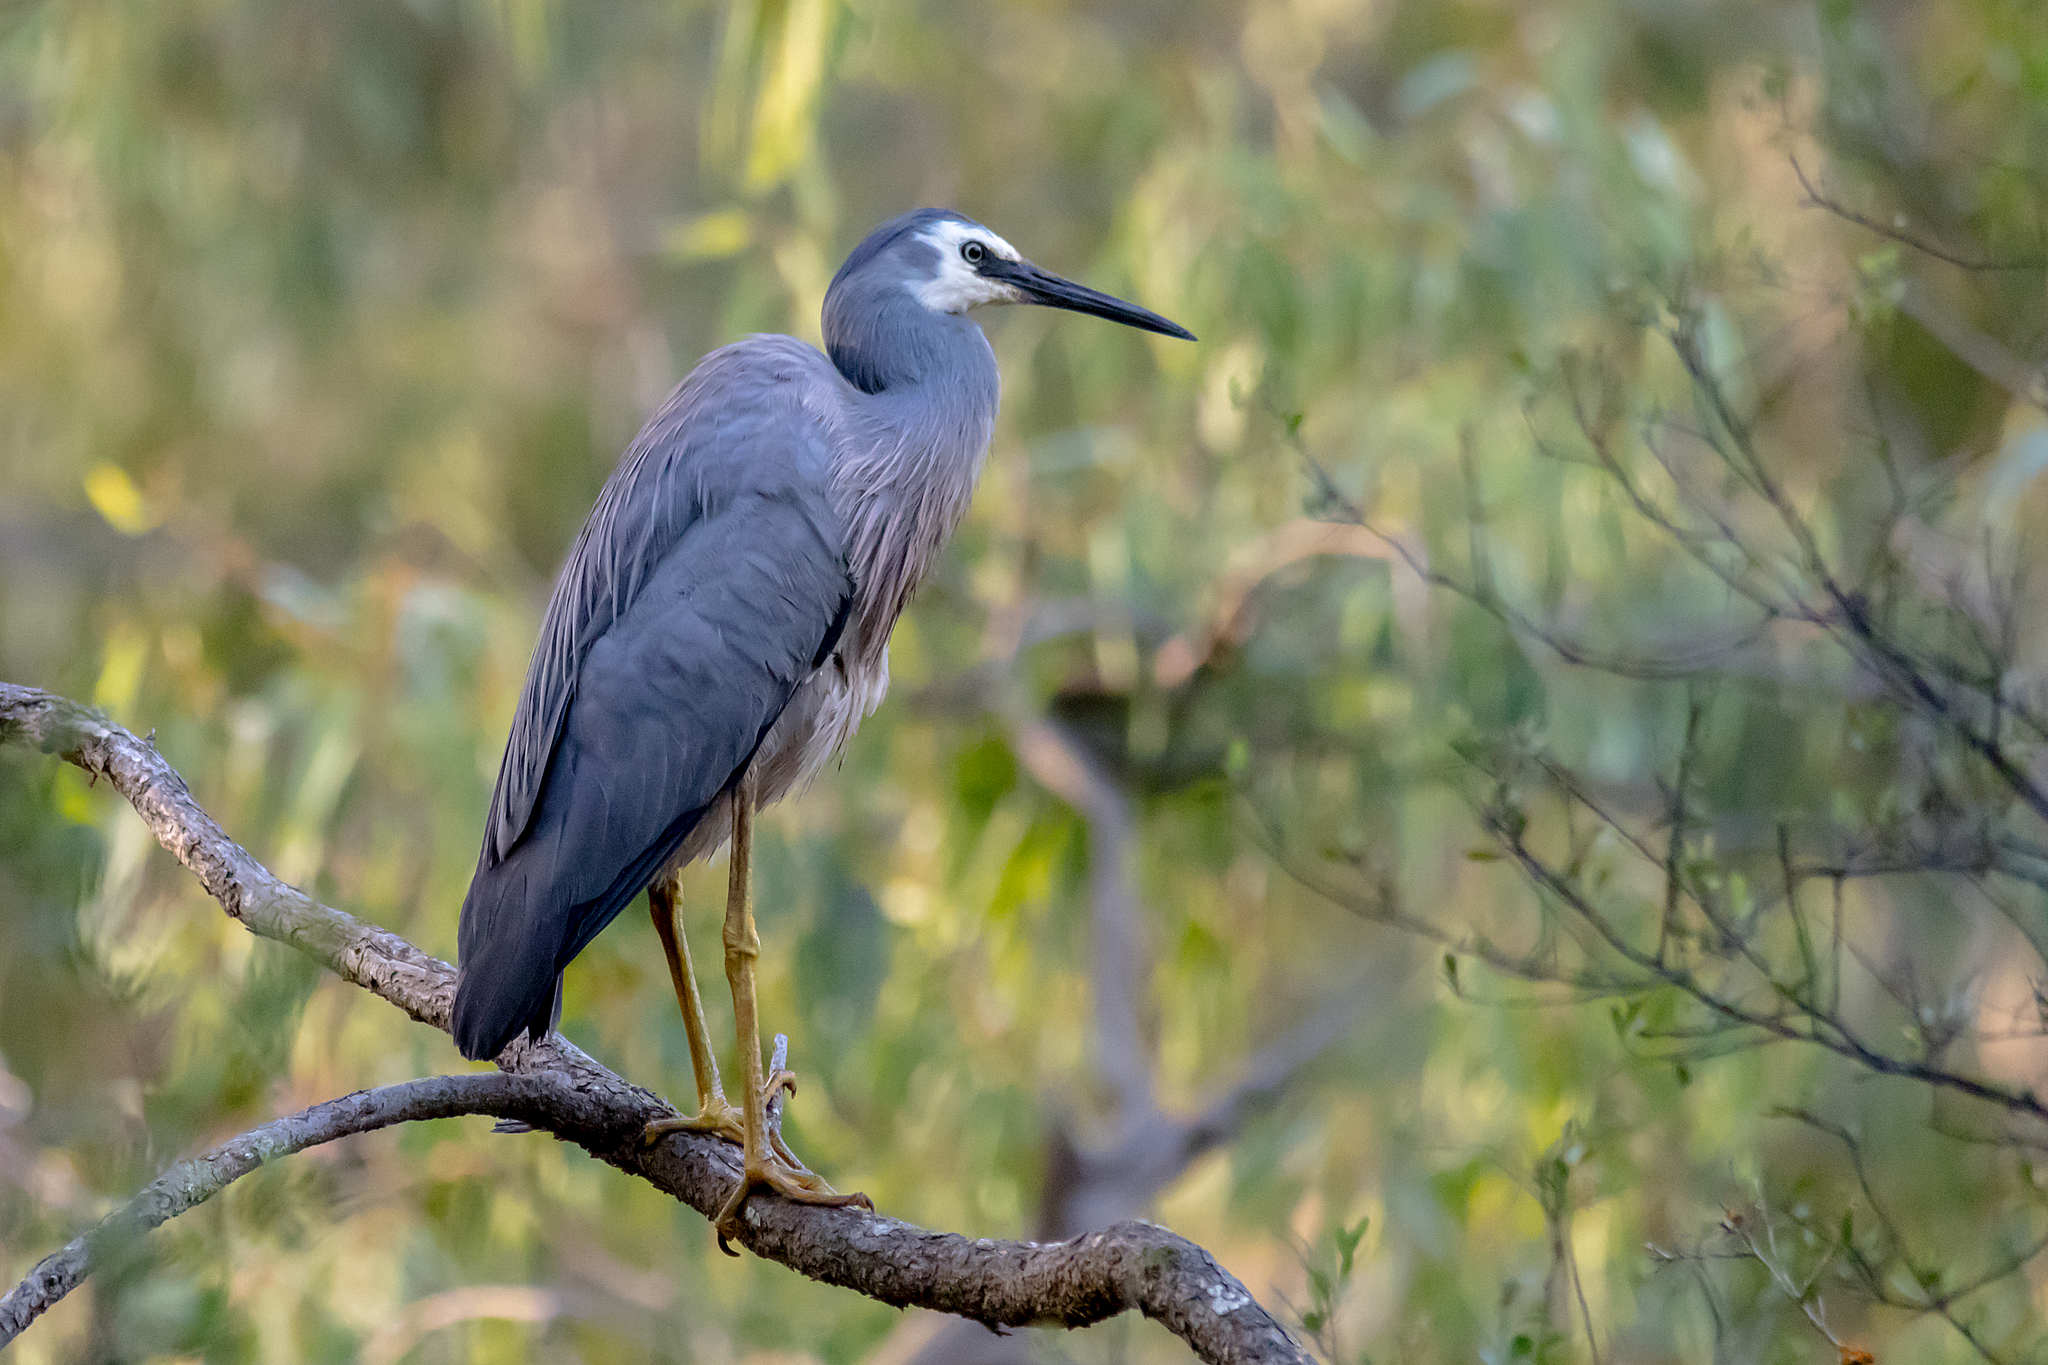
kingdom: Animalia
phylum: Chordata
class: Aves
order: Pelecaniformes
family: Ardeidae
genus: Egretta
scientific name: Egretta novaehollandiae
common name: White-faced heron
